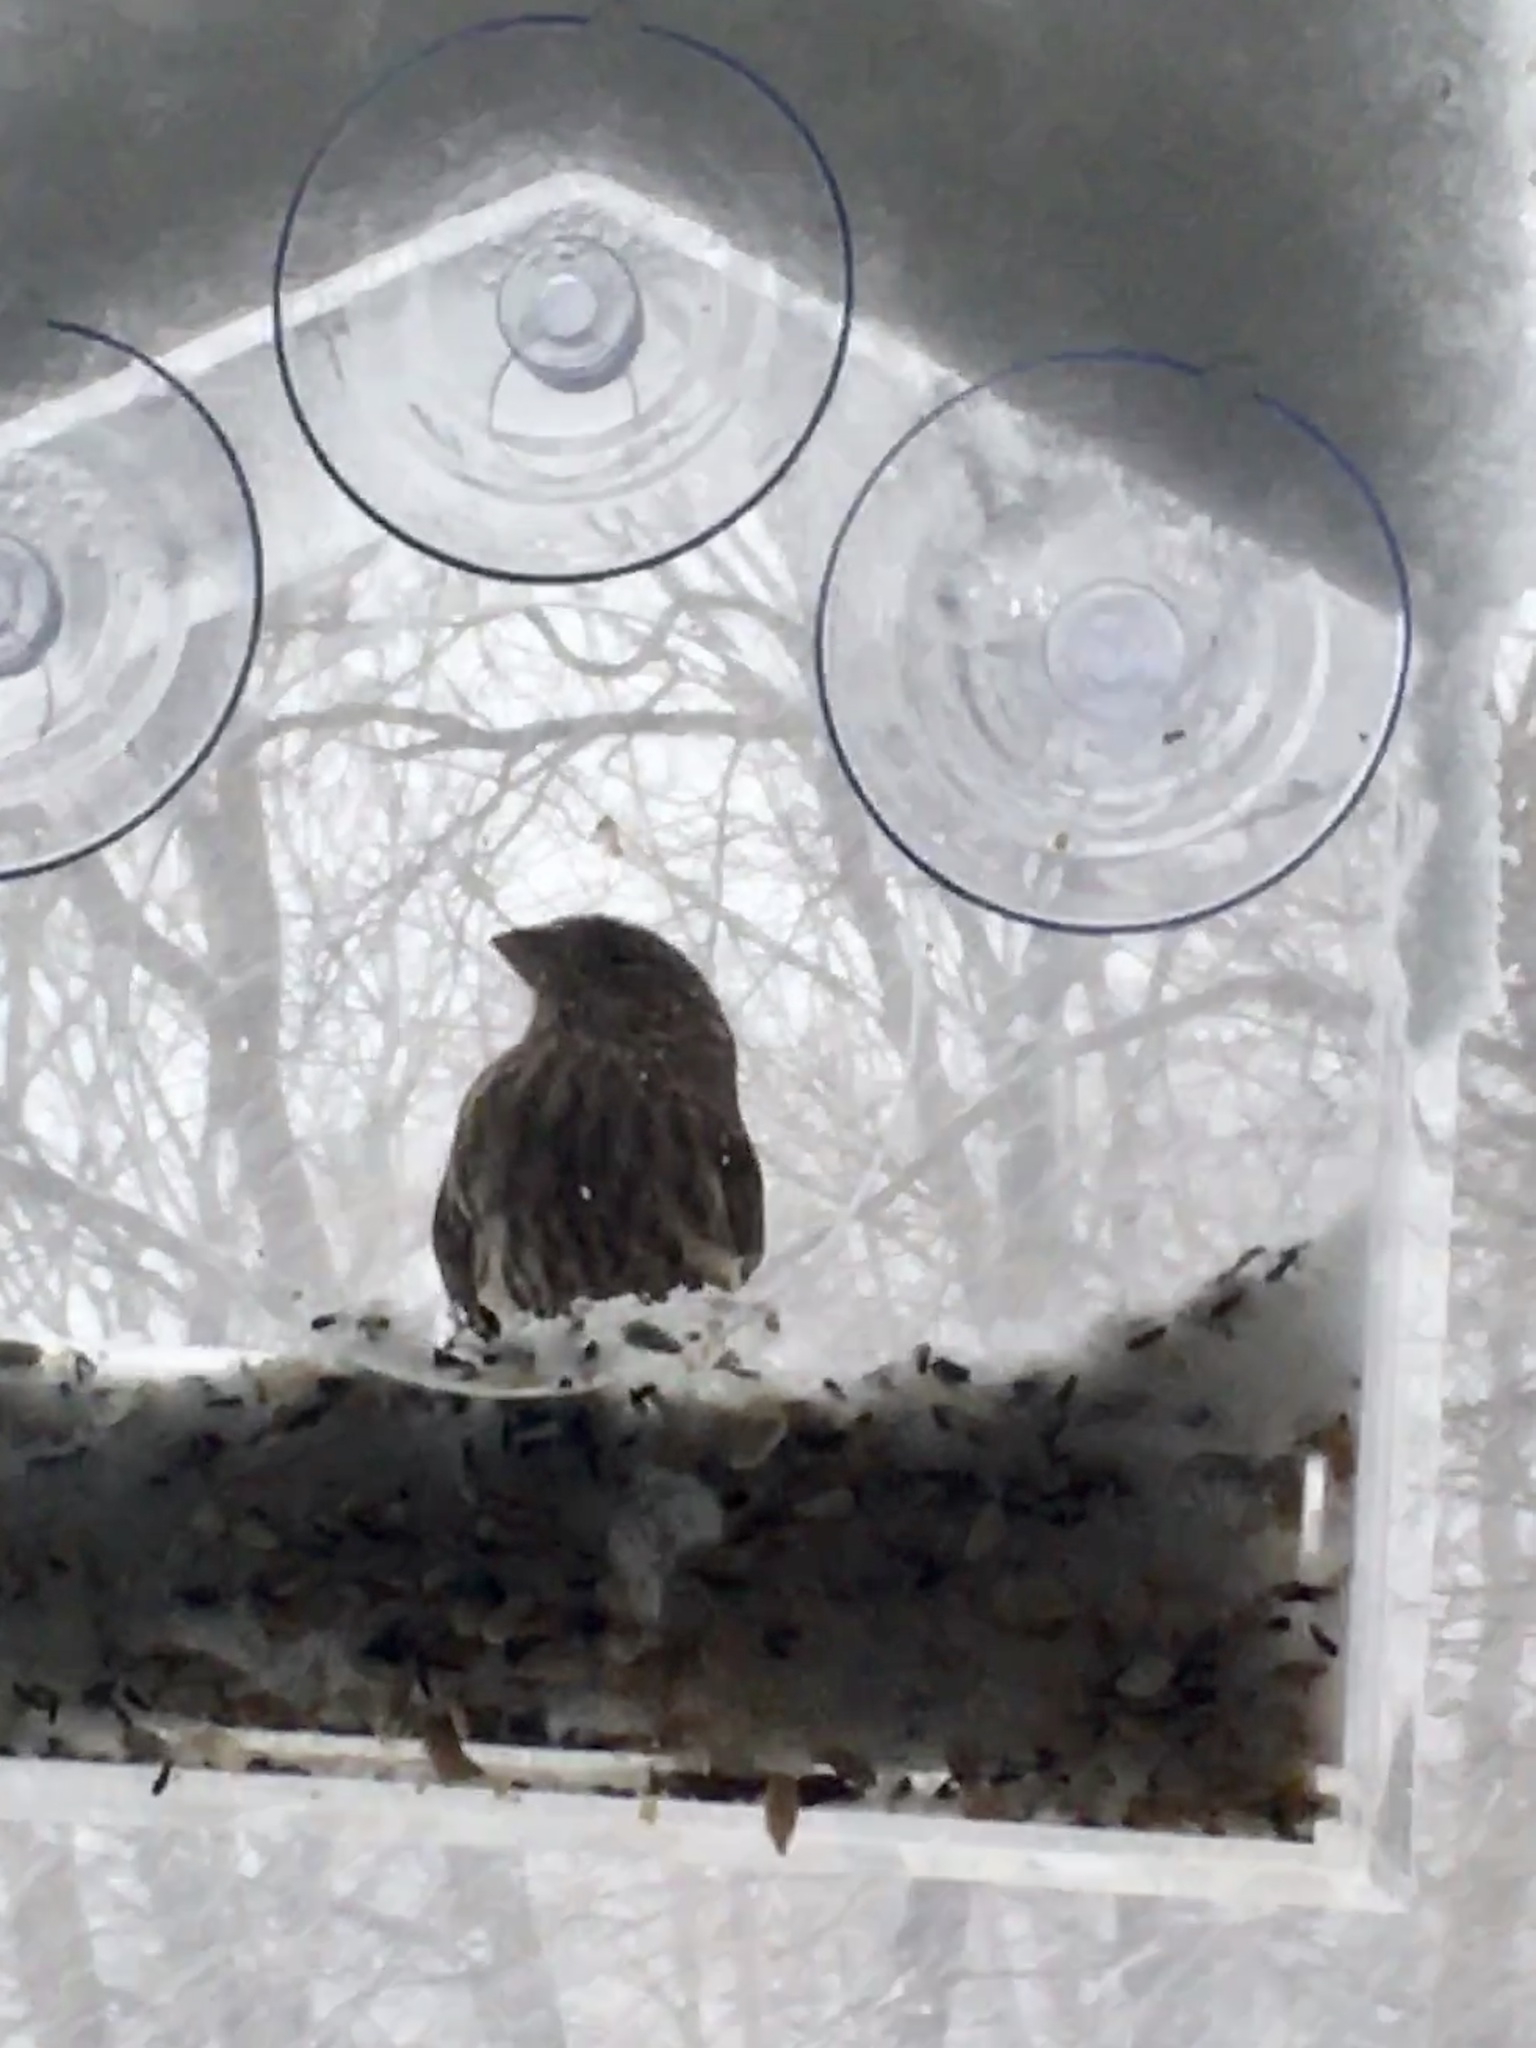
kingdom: Animalia
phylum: Chordata
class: Aves
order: Passeriformes
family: Fringillidae
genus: Haemorhous
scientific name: Haemorhous mexicanus
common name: House finch
